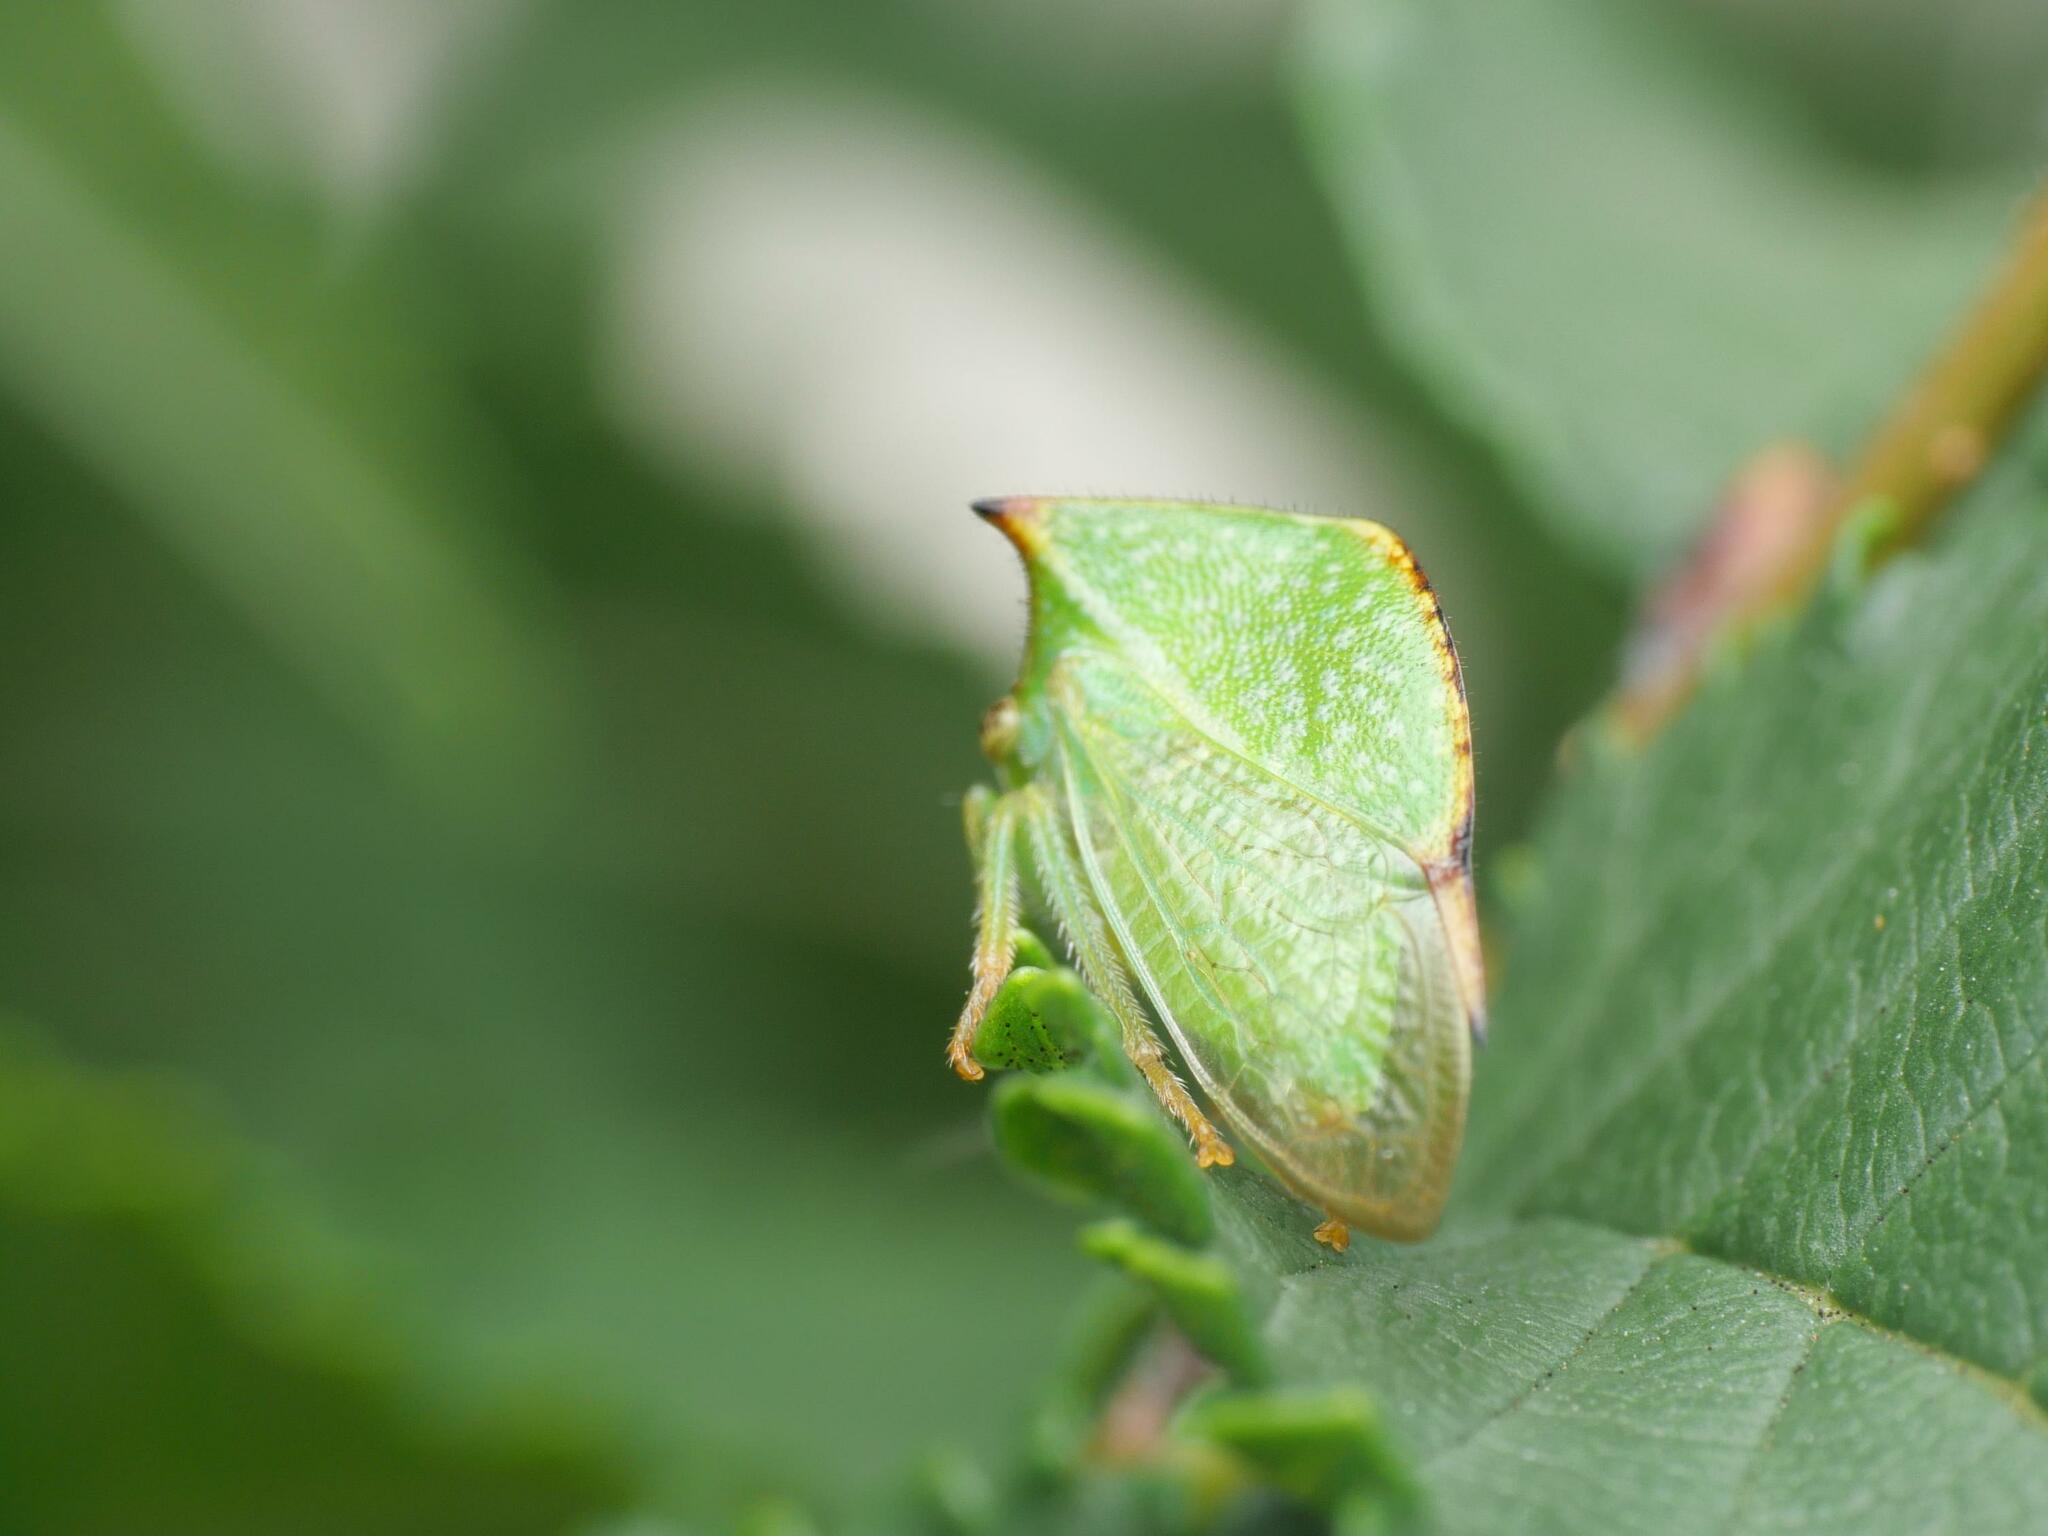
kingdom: Animalia
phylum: Arthropoda
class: Insecta
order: Hemiptera
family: Membracidae
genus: Stictocephala
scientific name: Stictocephala bisonia
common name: American buffalo treehopper
